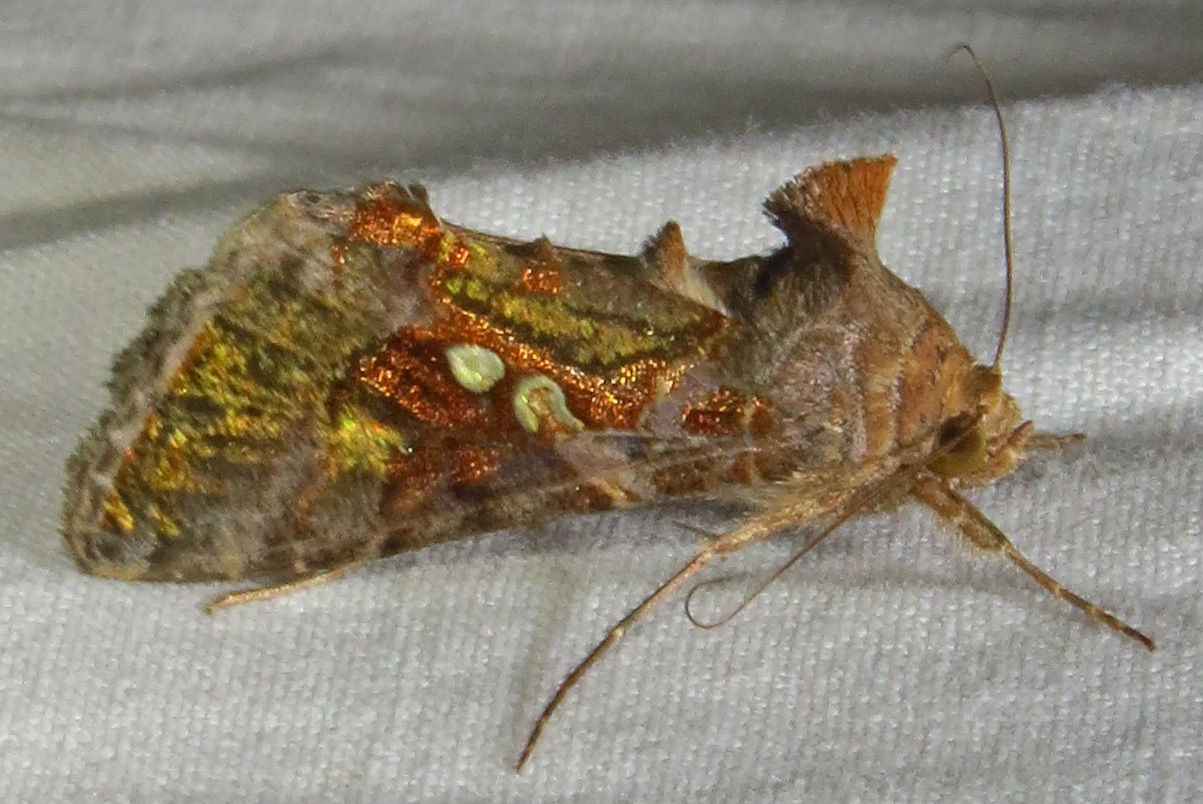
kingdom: Animalia
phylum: Arthropoda
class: Insecta
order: Lepidoptera
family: Noctuidae
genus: Chrysodeixis
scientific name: Chrysodeixis includens
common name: Cutworm moth
